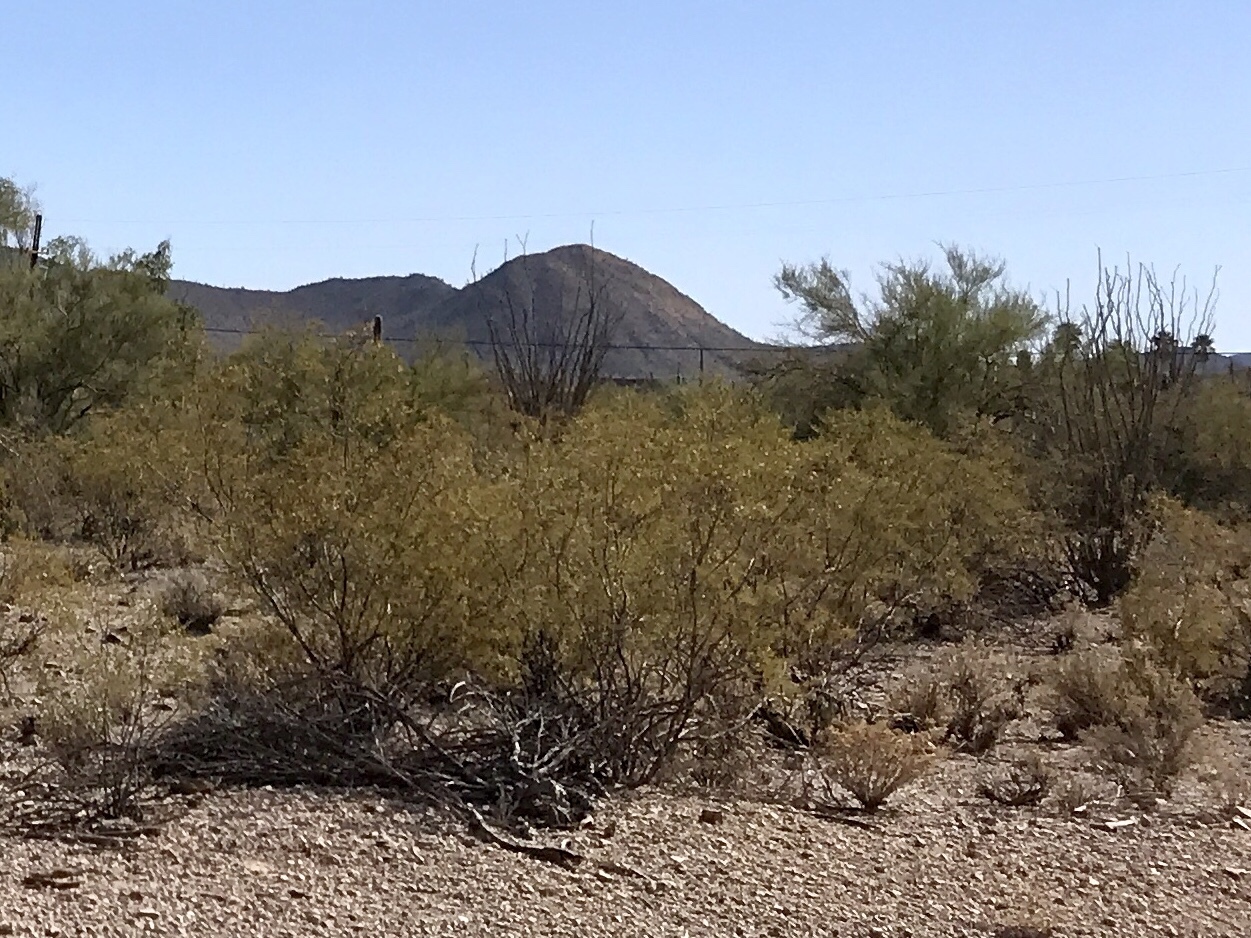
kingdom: Plantae
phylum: Tracheophyta
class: Magnoliopsida
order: Zygophyllales
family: Zygophyllaceae
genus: Larrea
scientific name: Larrea tridentata
